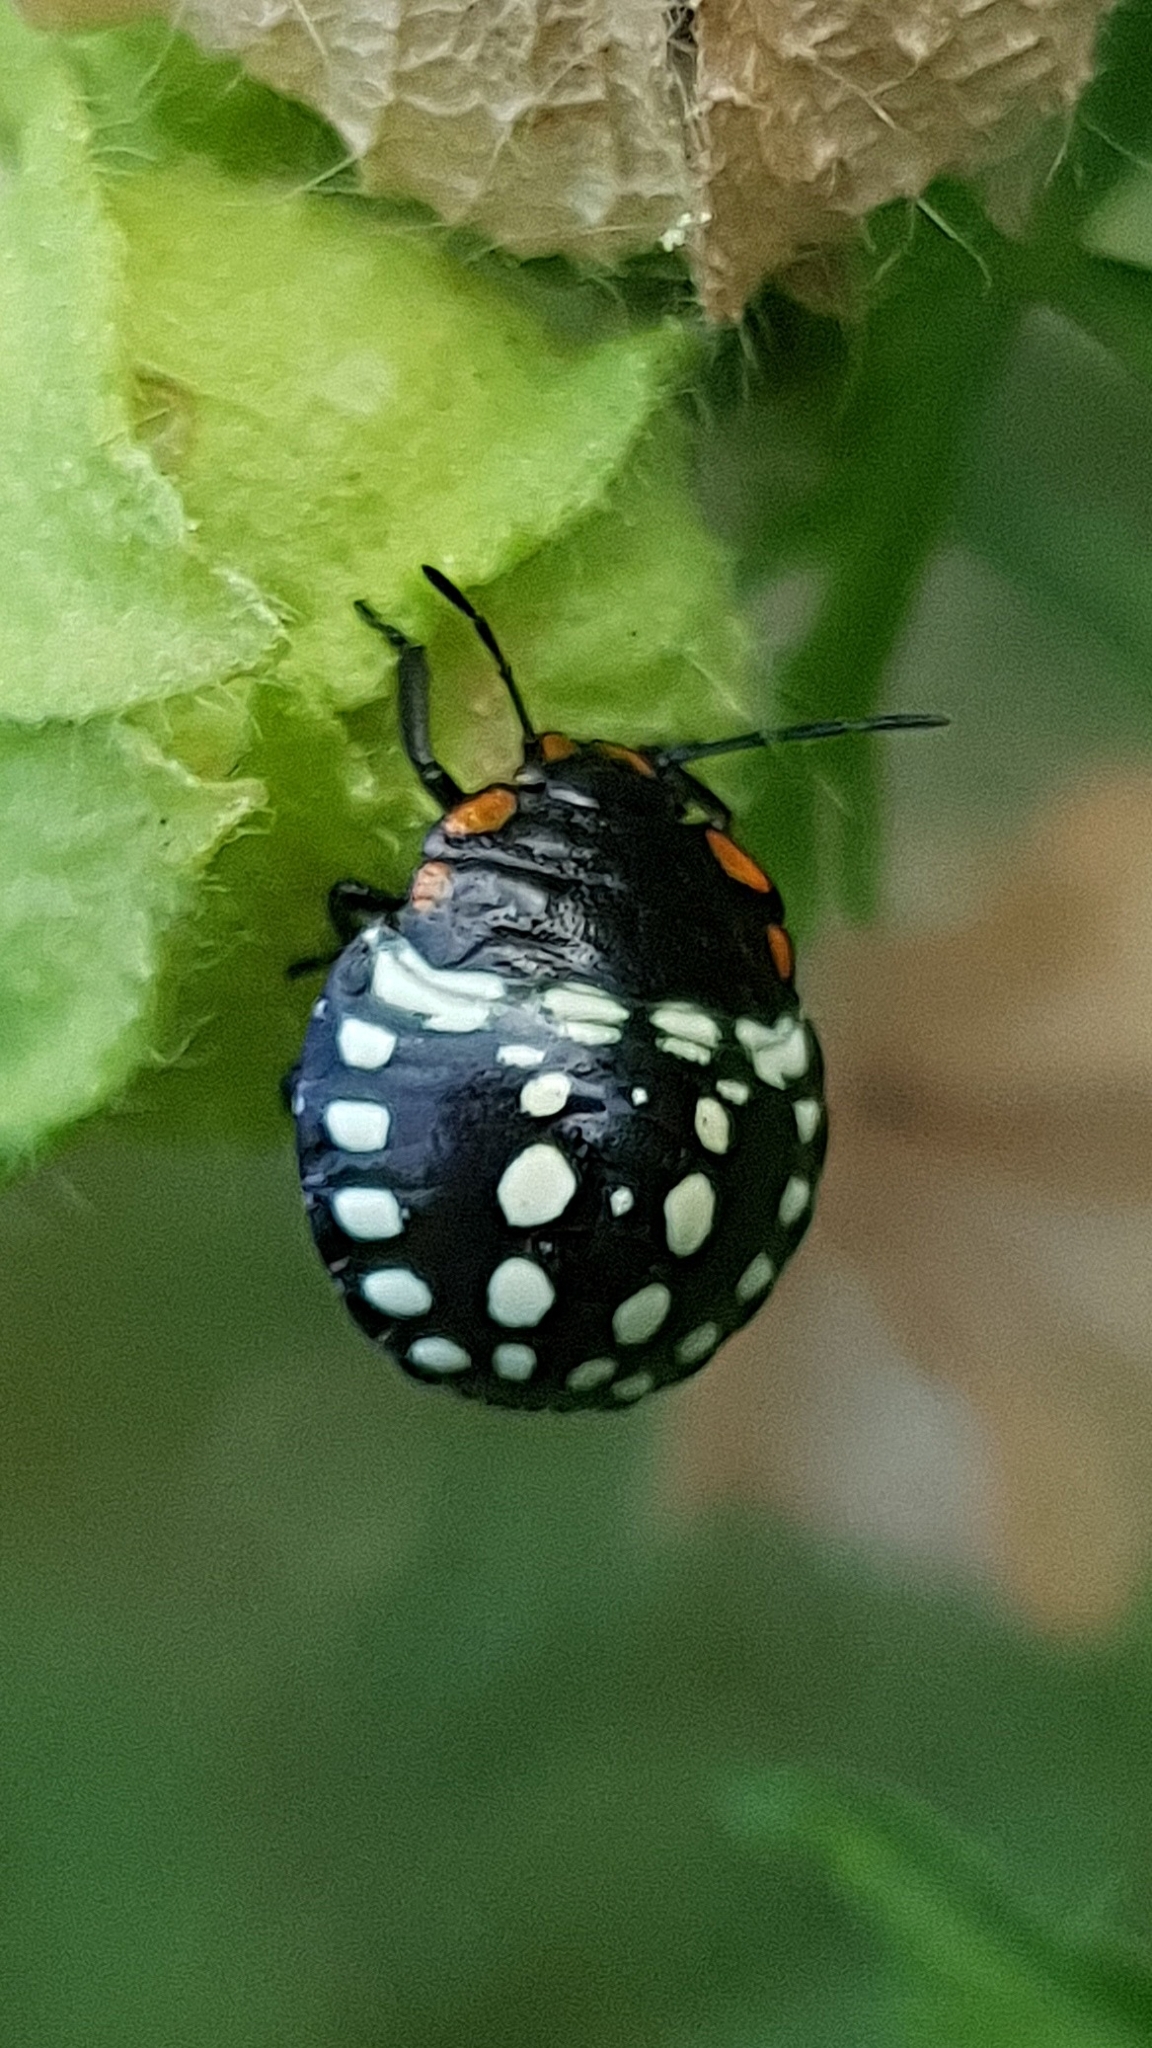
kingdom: Animalia
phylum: Arthropoda
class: Insecta
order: Hemiptera
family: Pentatomidae
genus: Nezara
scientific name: Nezara viridula
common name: Southern green stink bug
